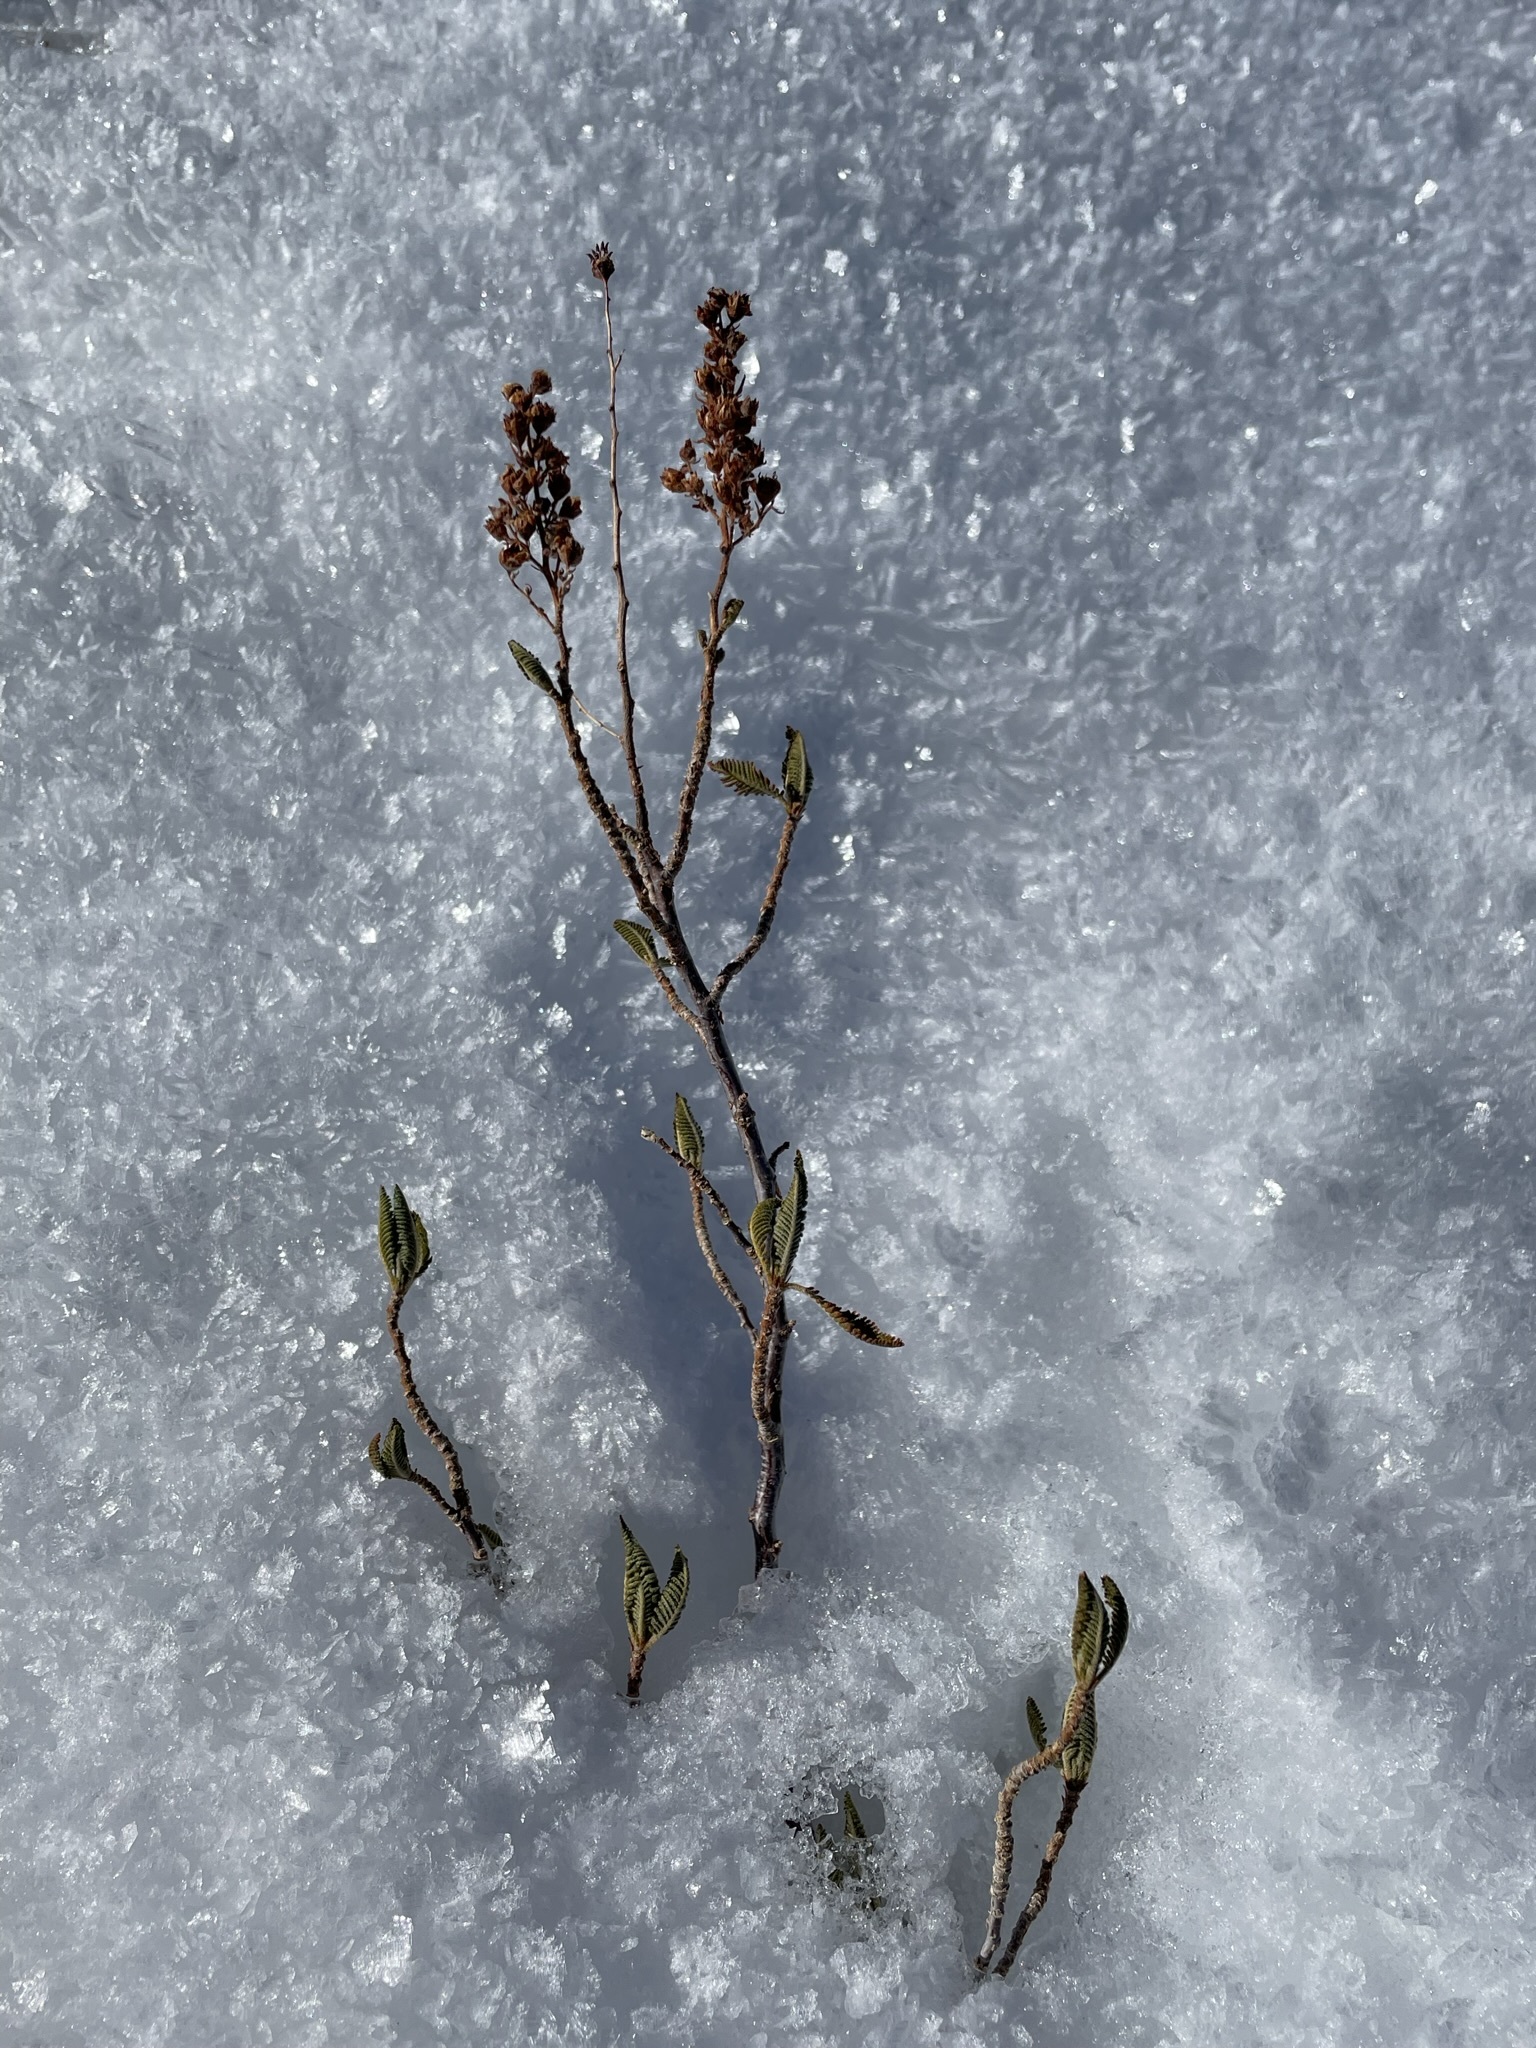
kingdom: Plantae
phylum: Tracheophyta
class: Magnoliopsida
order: Rosales
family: Rosaceae
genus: Chamaebatiaria
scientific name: Chamaebatiaria millefolium
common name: Fernbush
